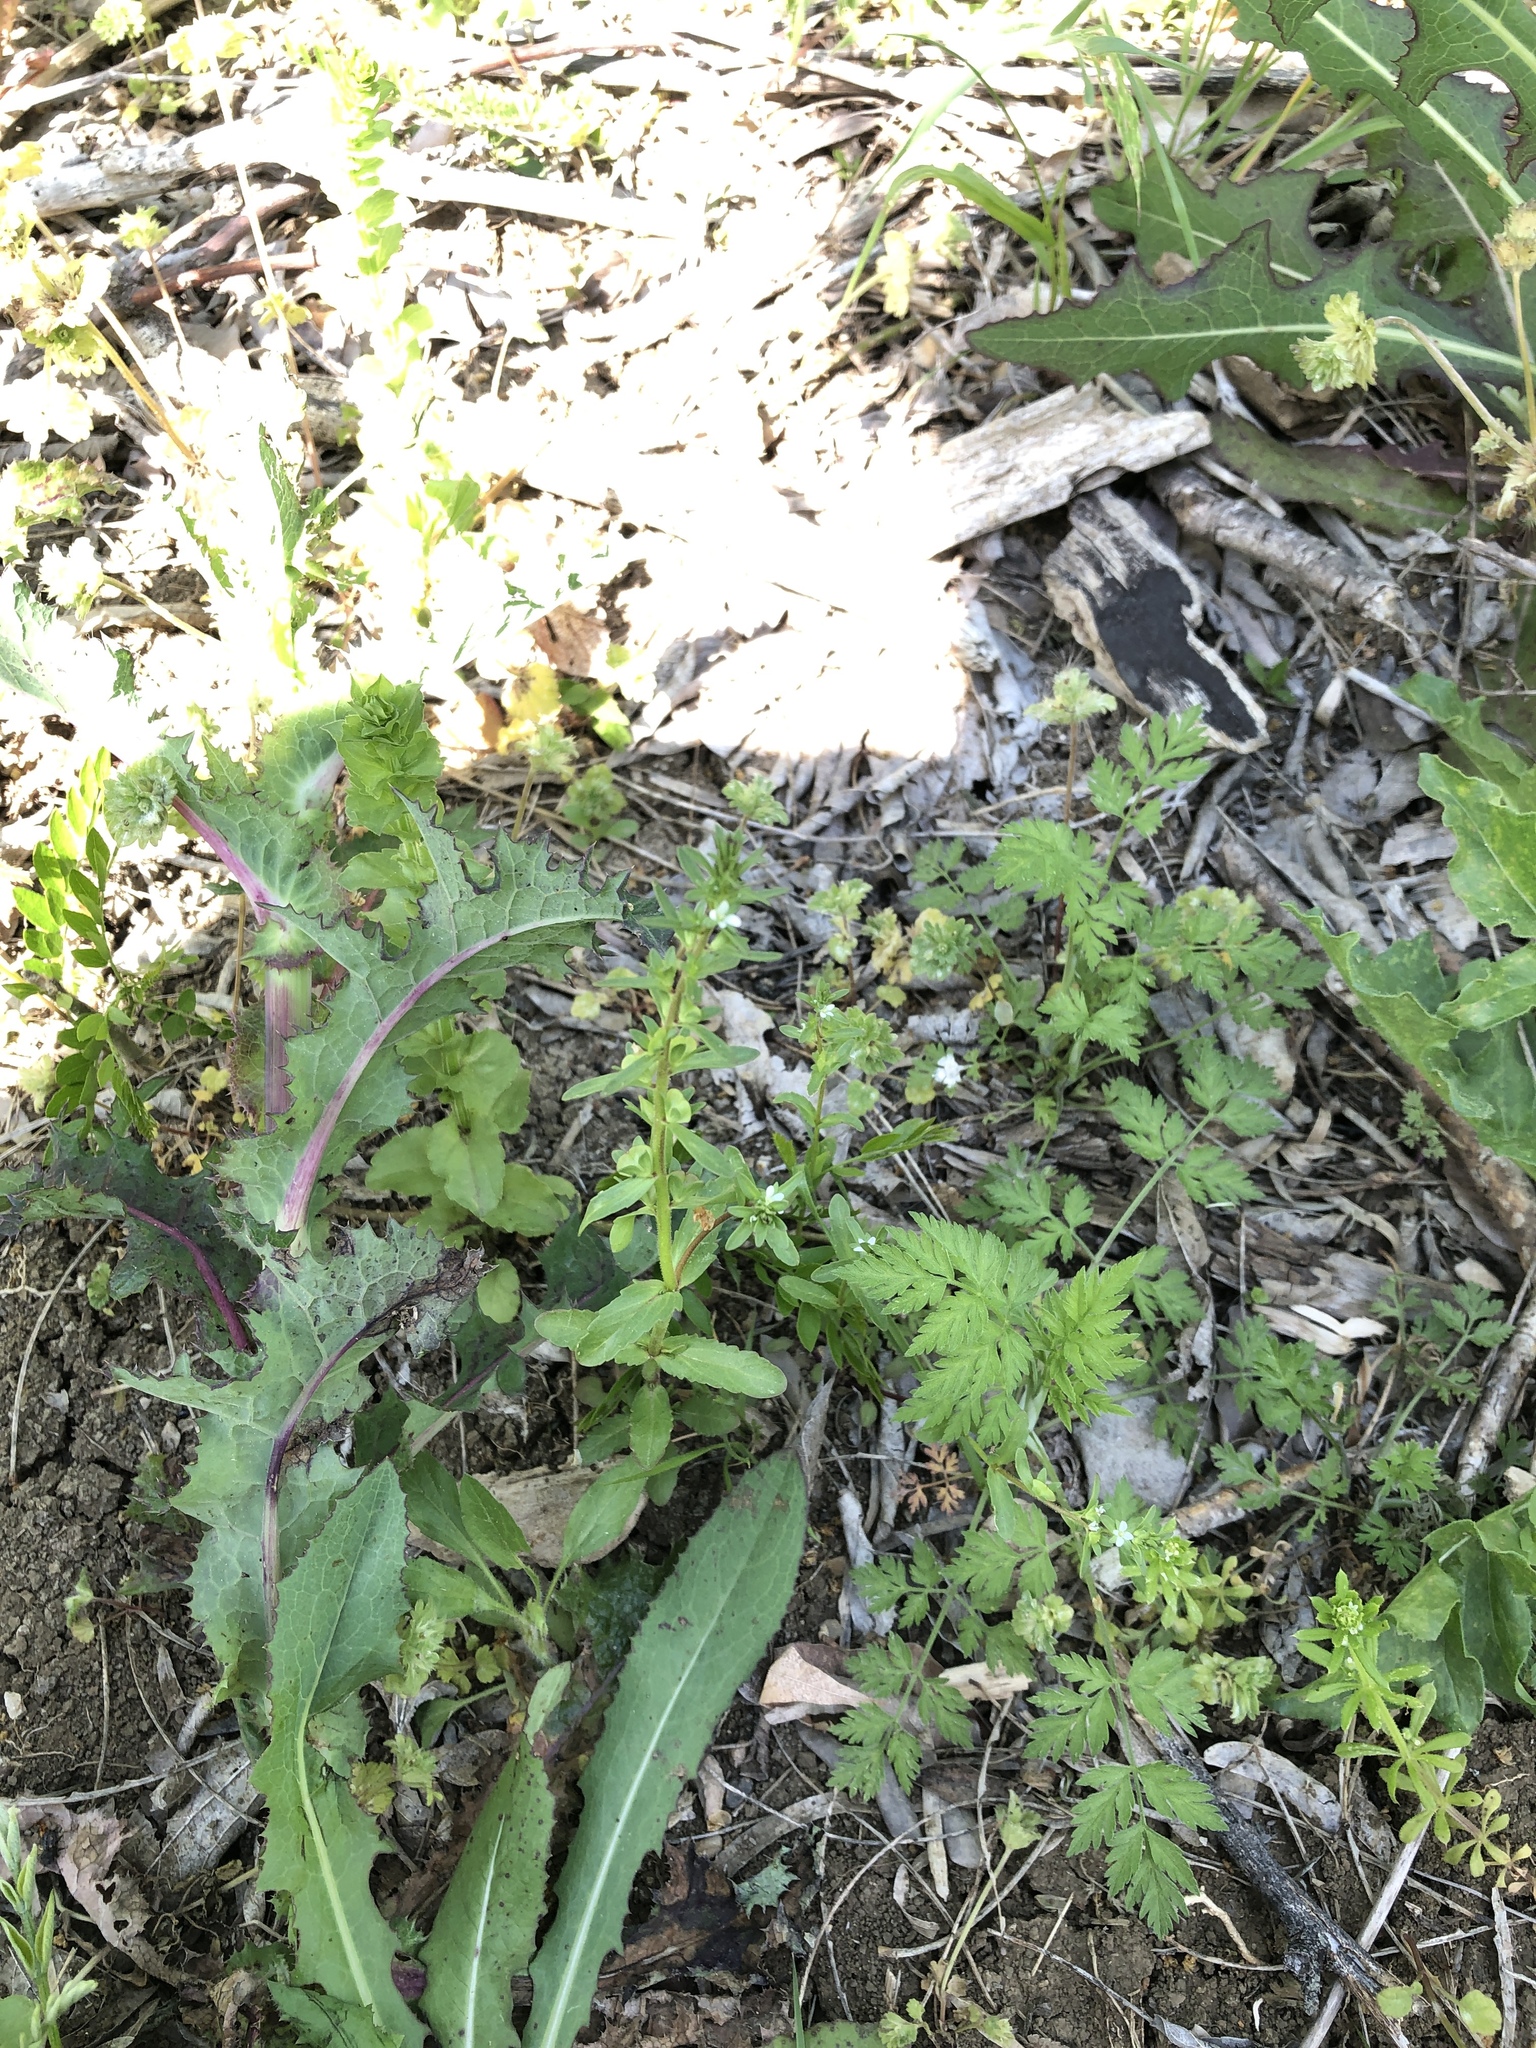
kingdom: Plantae
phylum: Tracheophyta
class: Magnoliopsida
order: Lamiales
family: Plantaginaceae
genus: Veronica
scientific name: Veronica peregrina
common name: Neckweed
